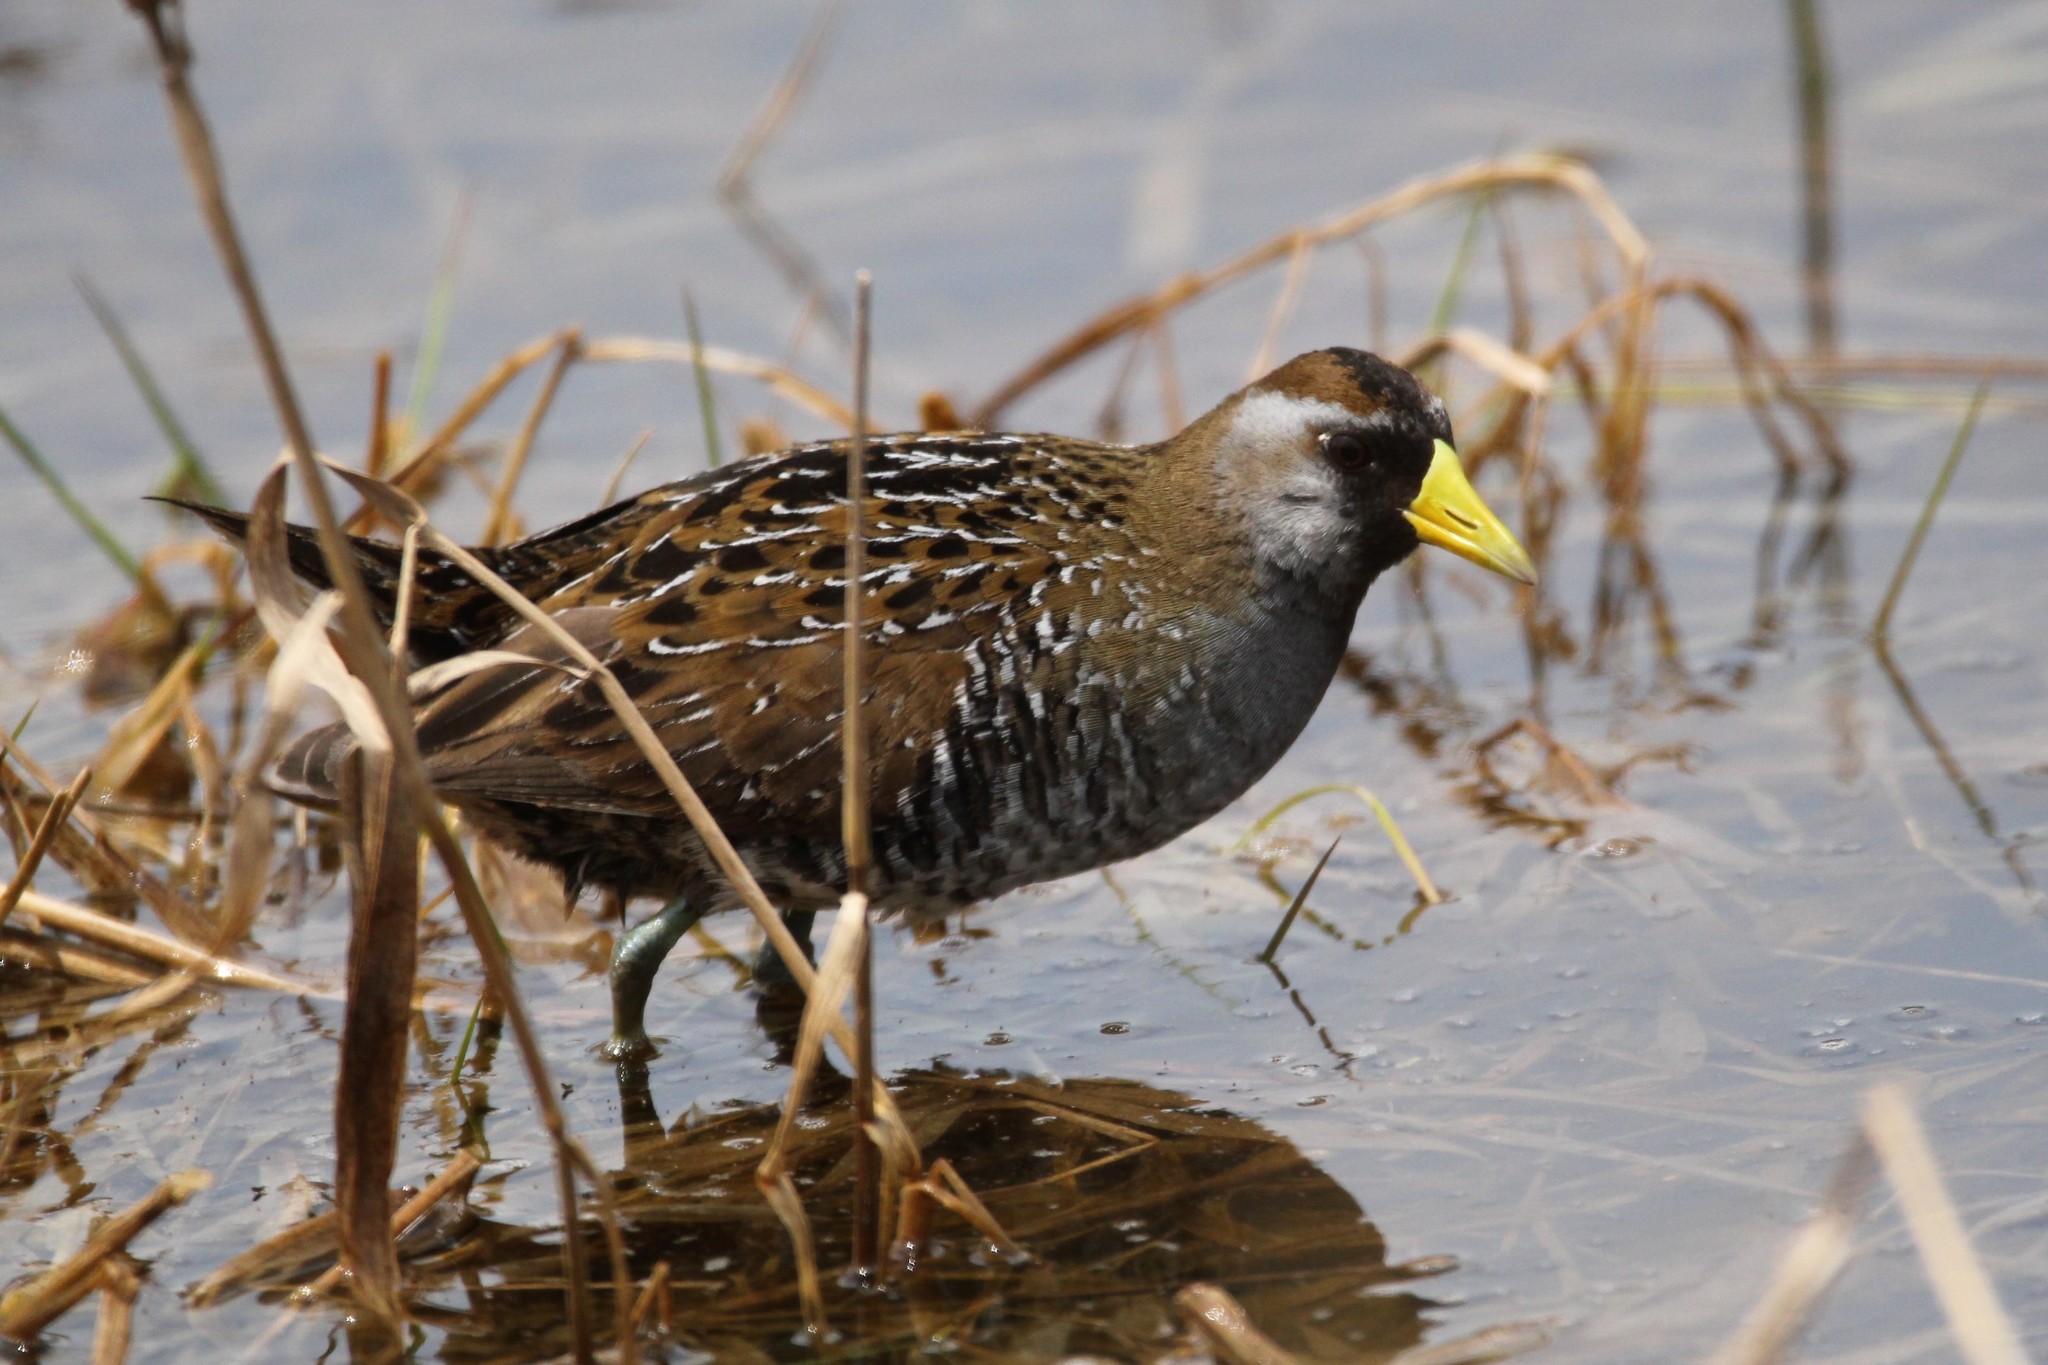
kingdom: Animalia
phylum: Chordata
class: Aves
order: Gruiformes
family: Rallidae
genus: Porzana
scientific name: Porzana carolina
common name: Sora
